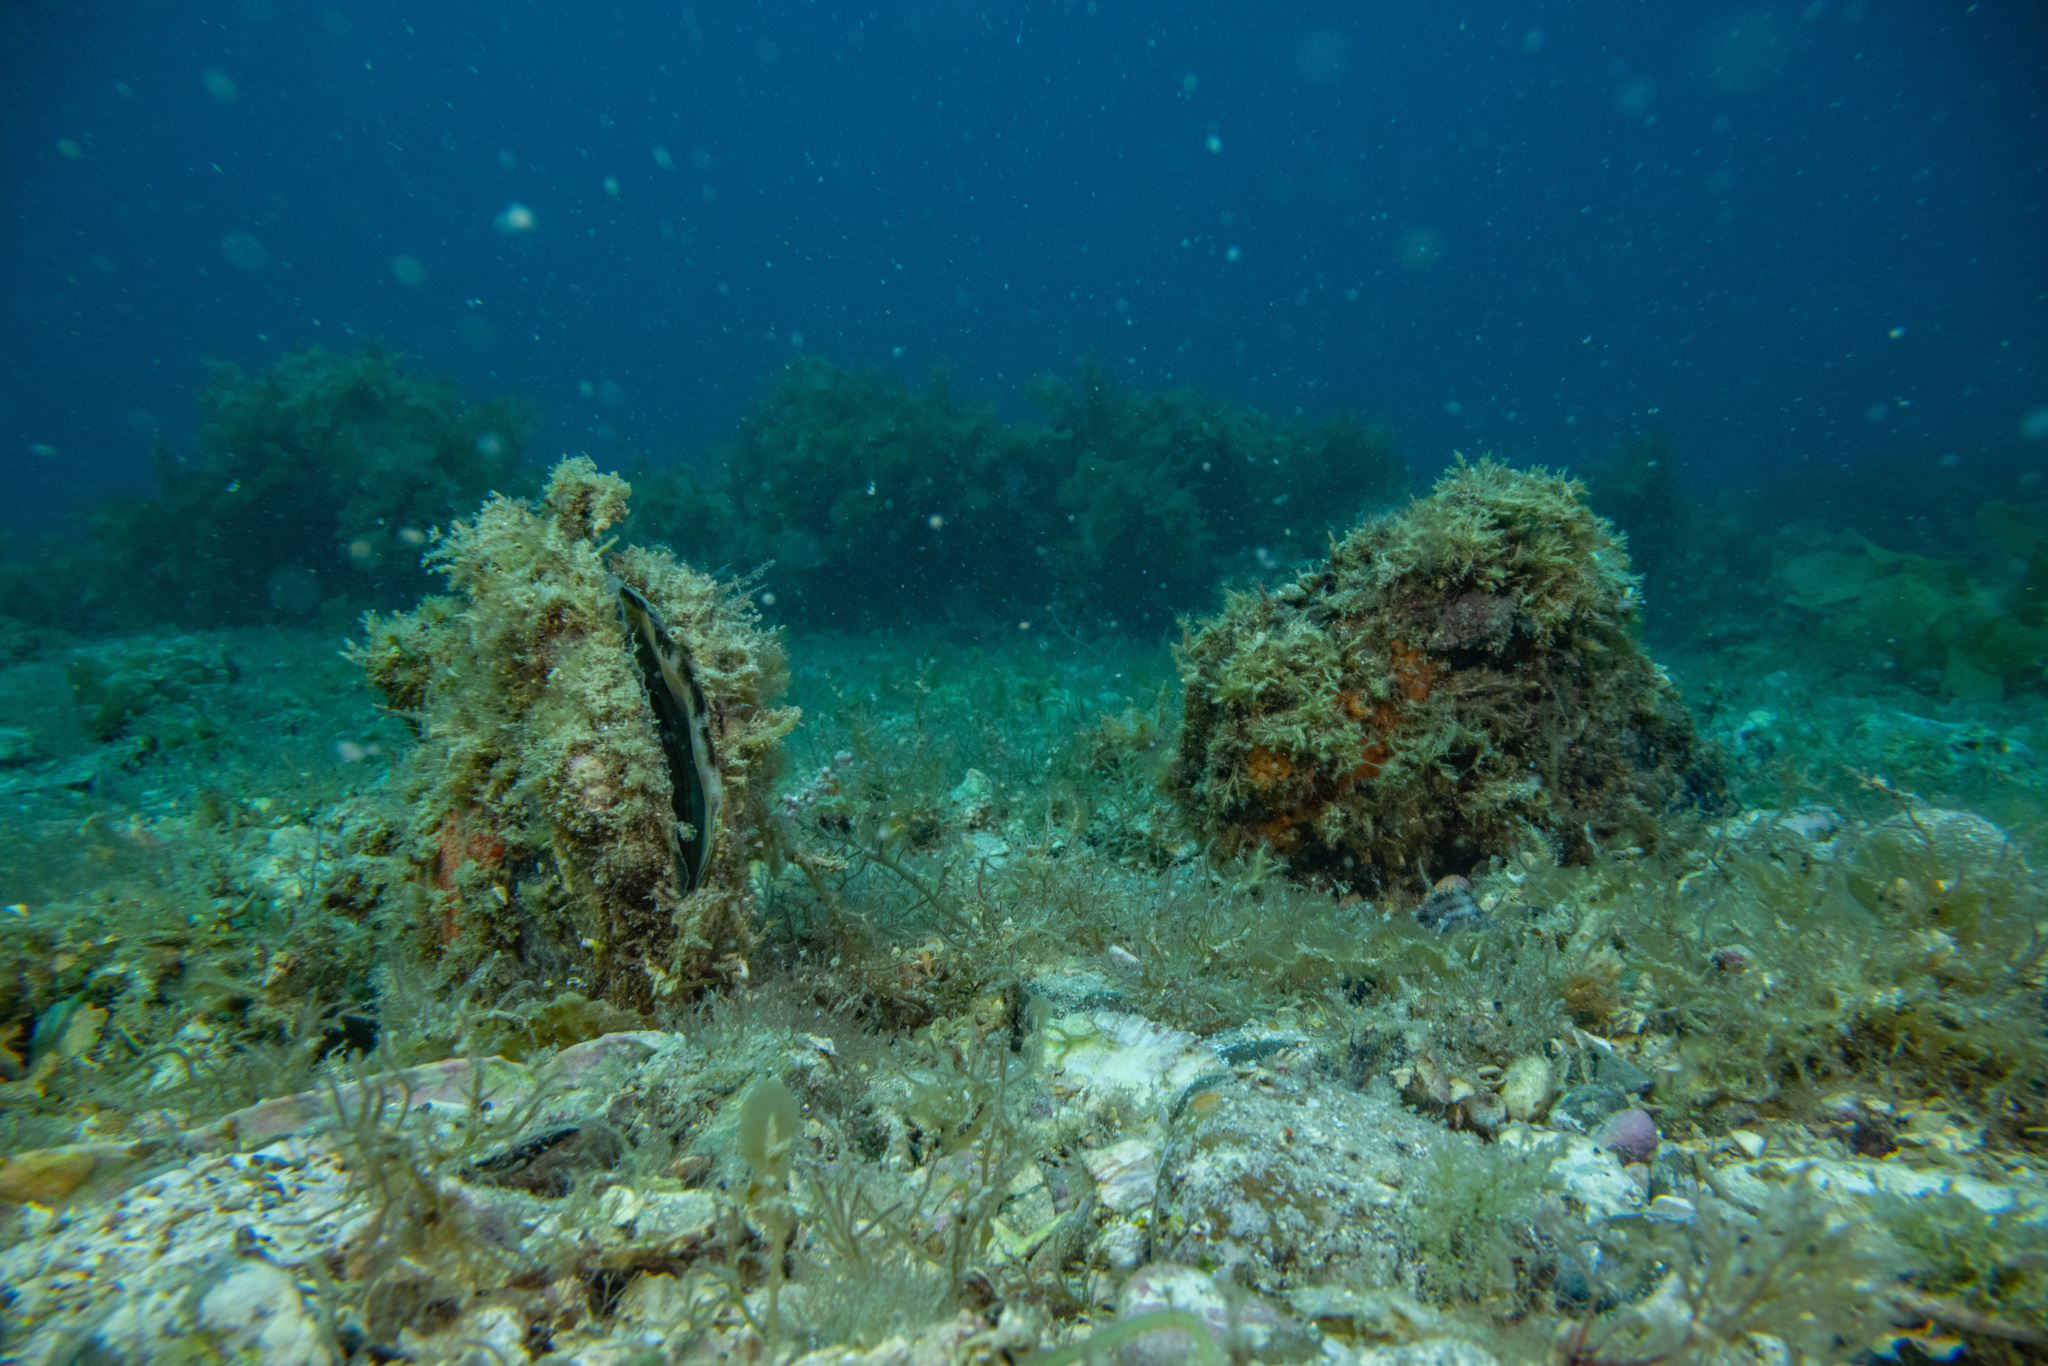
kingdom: Animalia
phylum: Mollusca
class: Bivalvia
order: Ostreida
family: Pinnidae
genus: Atrina
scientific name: Atrina zelandica
